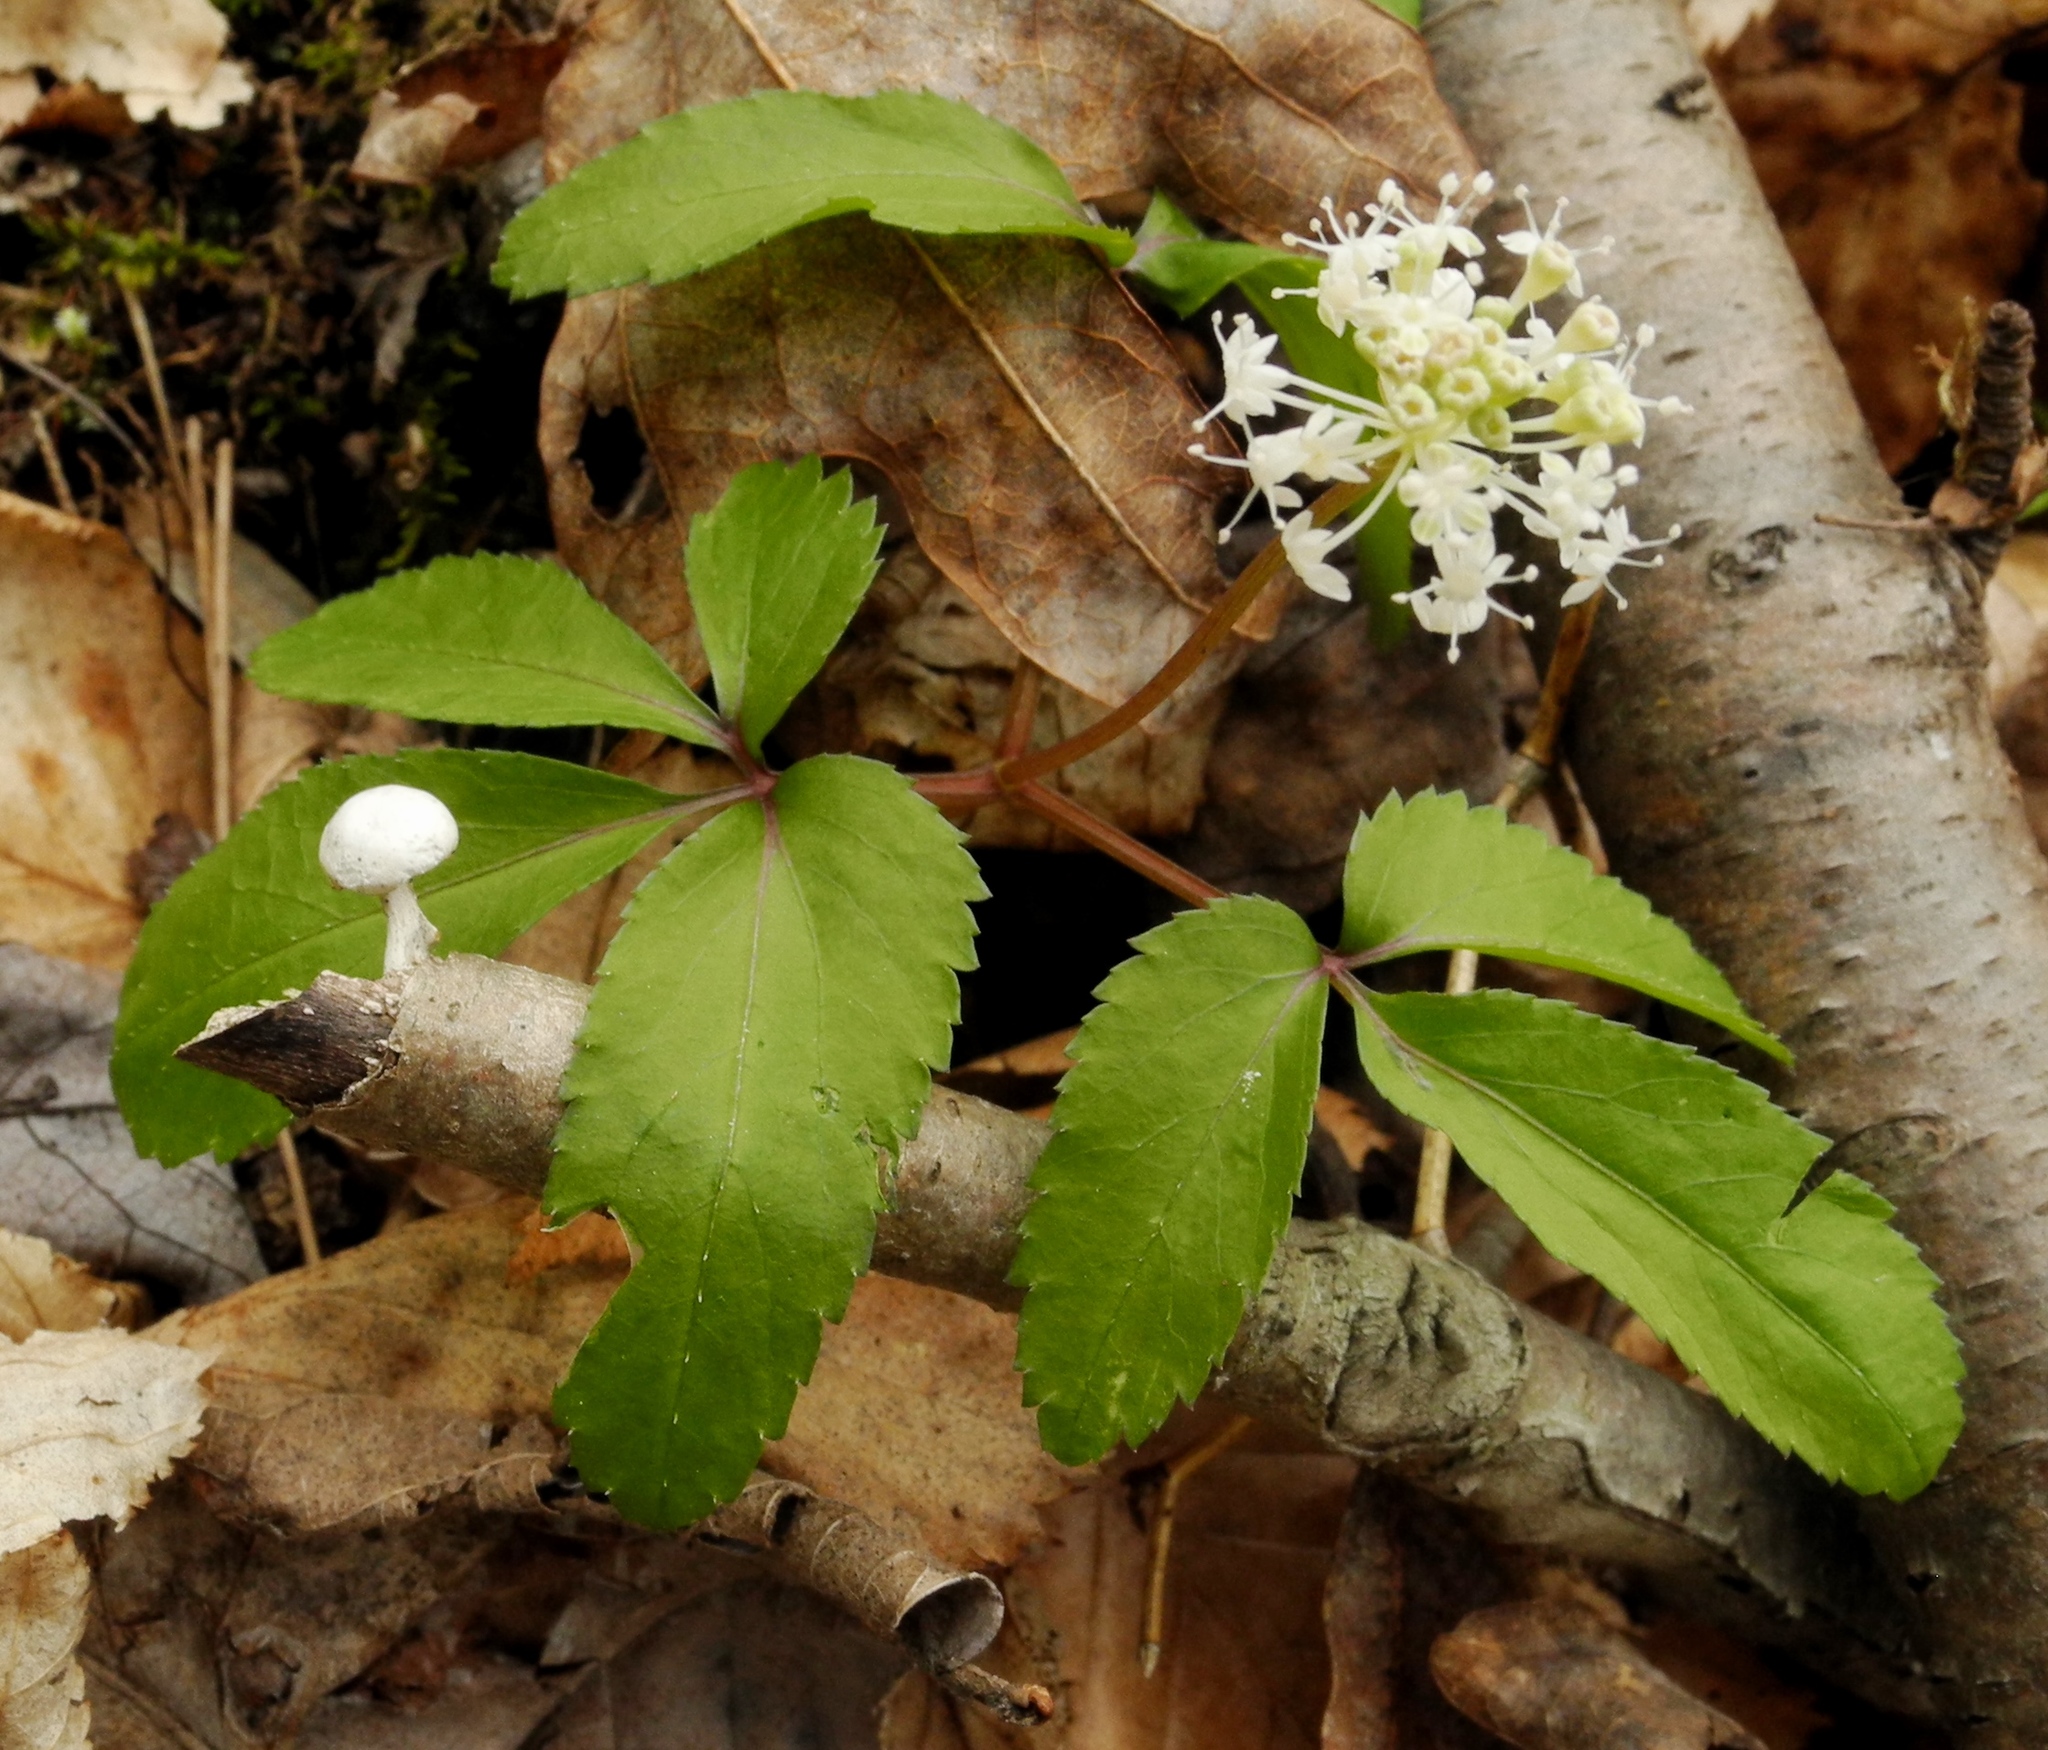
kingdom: Plantae
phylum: Tracheophyta
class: Magnoliopsida
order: Apiales
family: Araliaceae
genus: Panax
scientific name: Panax trifolius
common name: Dwarf ginseng
